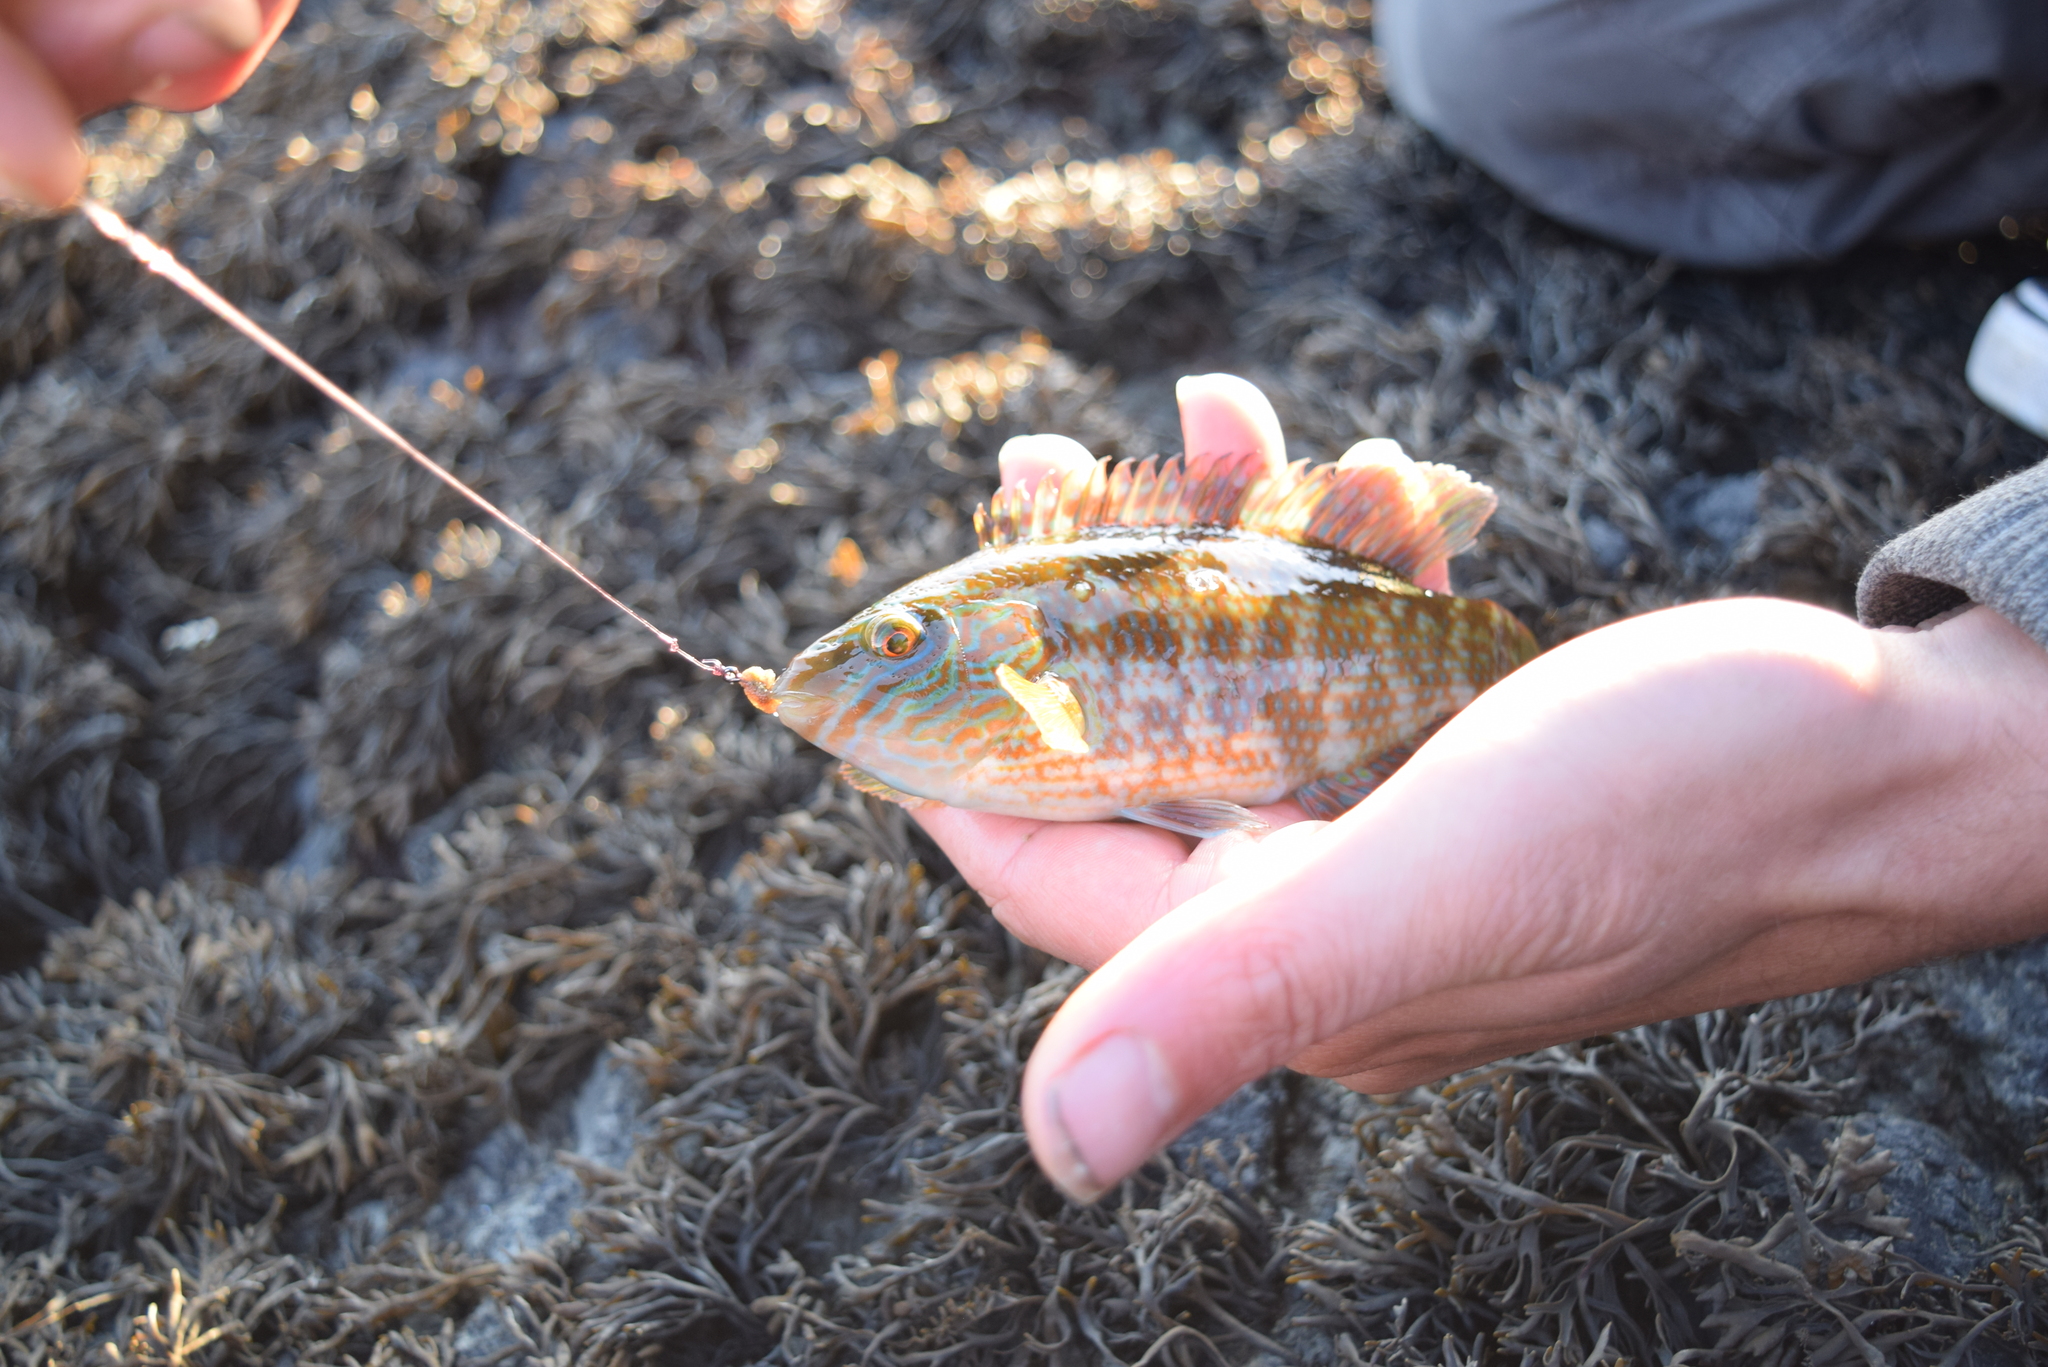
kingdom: Animalia
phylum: Chordata
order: Perciformes
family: Labridae
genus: Symphodus
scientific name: Symphodus melops
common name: Corkwing
